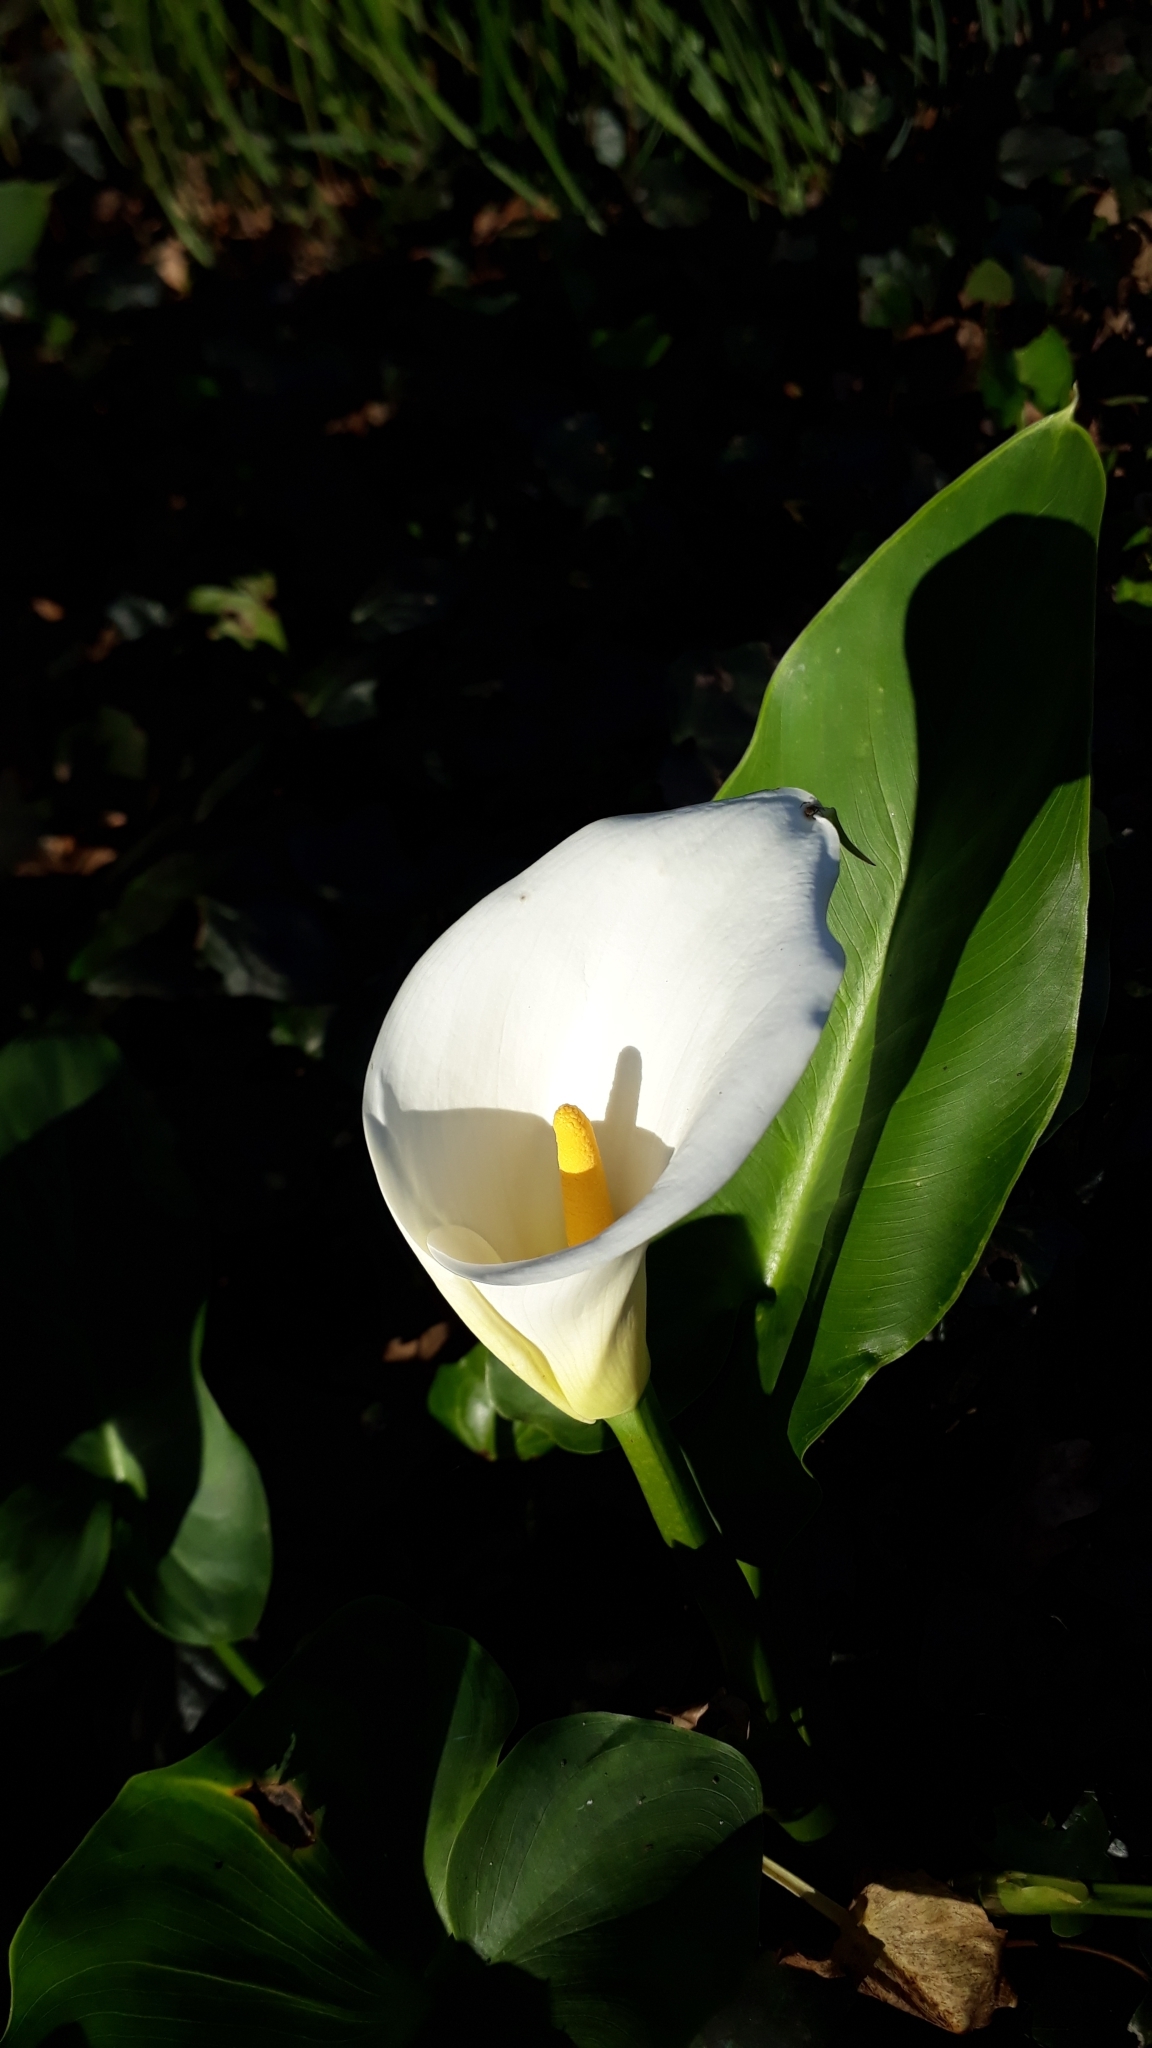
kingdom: Plantae
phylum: Tracheophyta
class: Liliopsida
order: Alismatales
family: Araceae
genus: Zantedeschia
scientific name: Zantedeschia aethiopica
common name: Altar-lily
